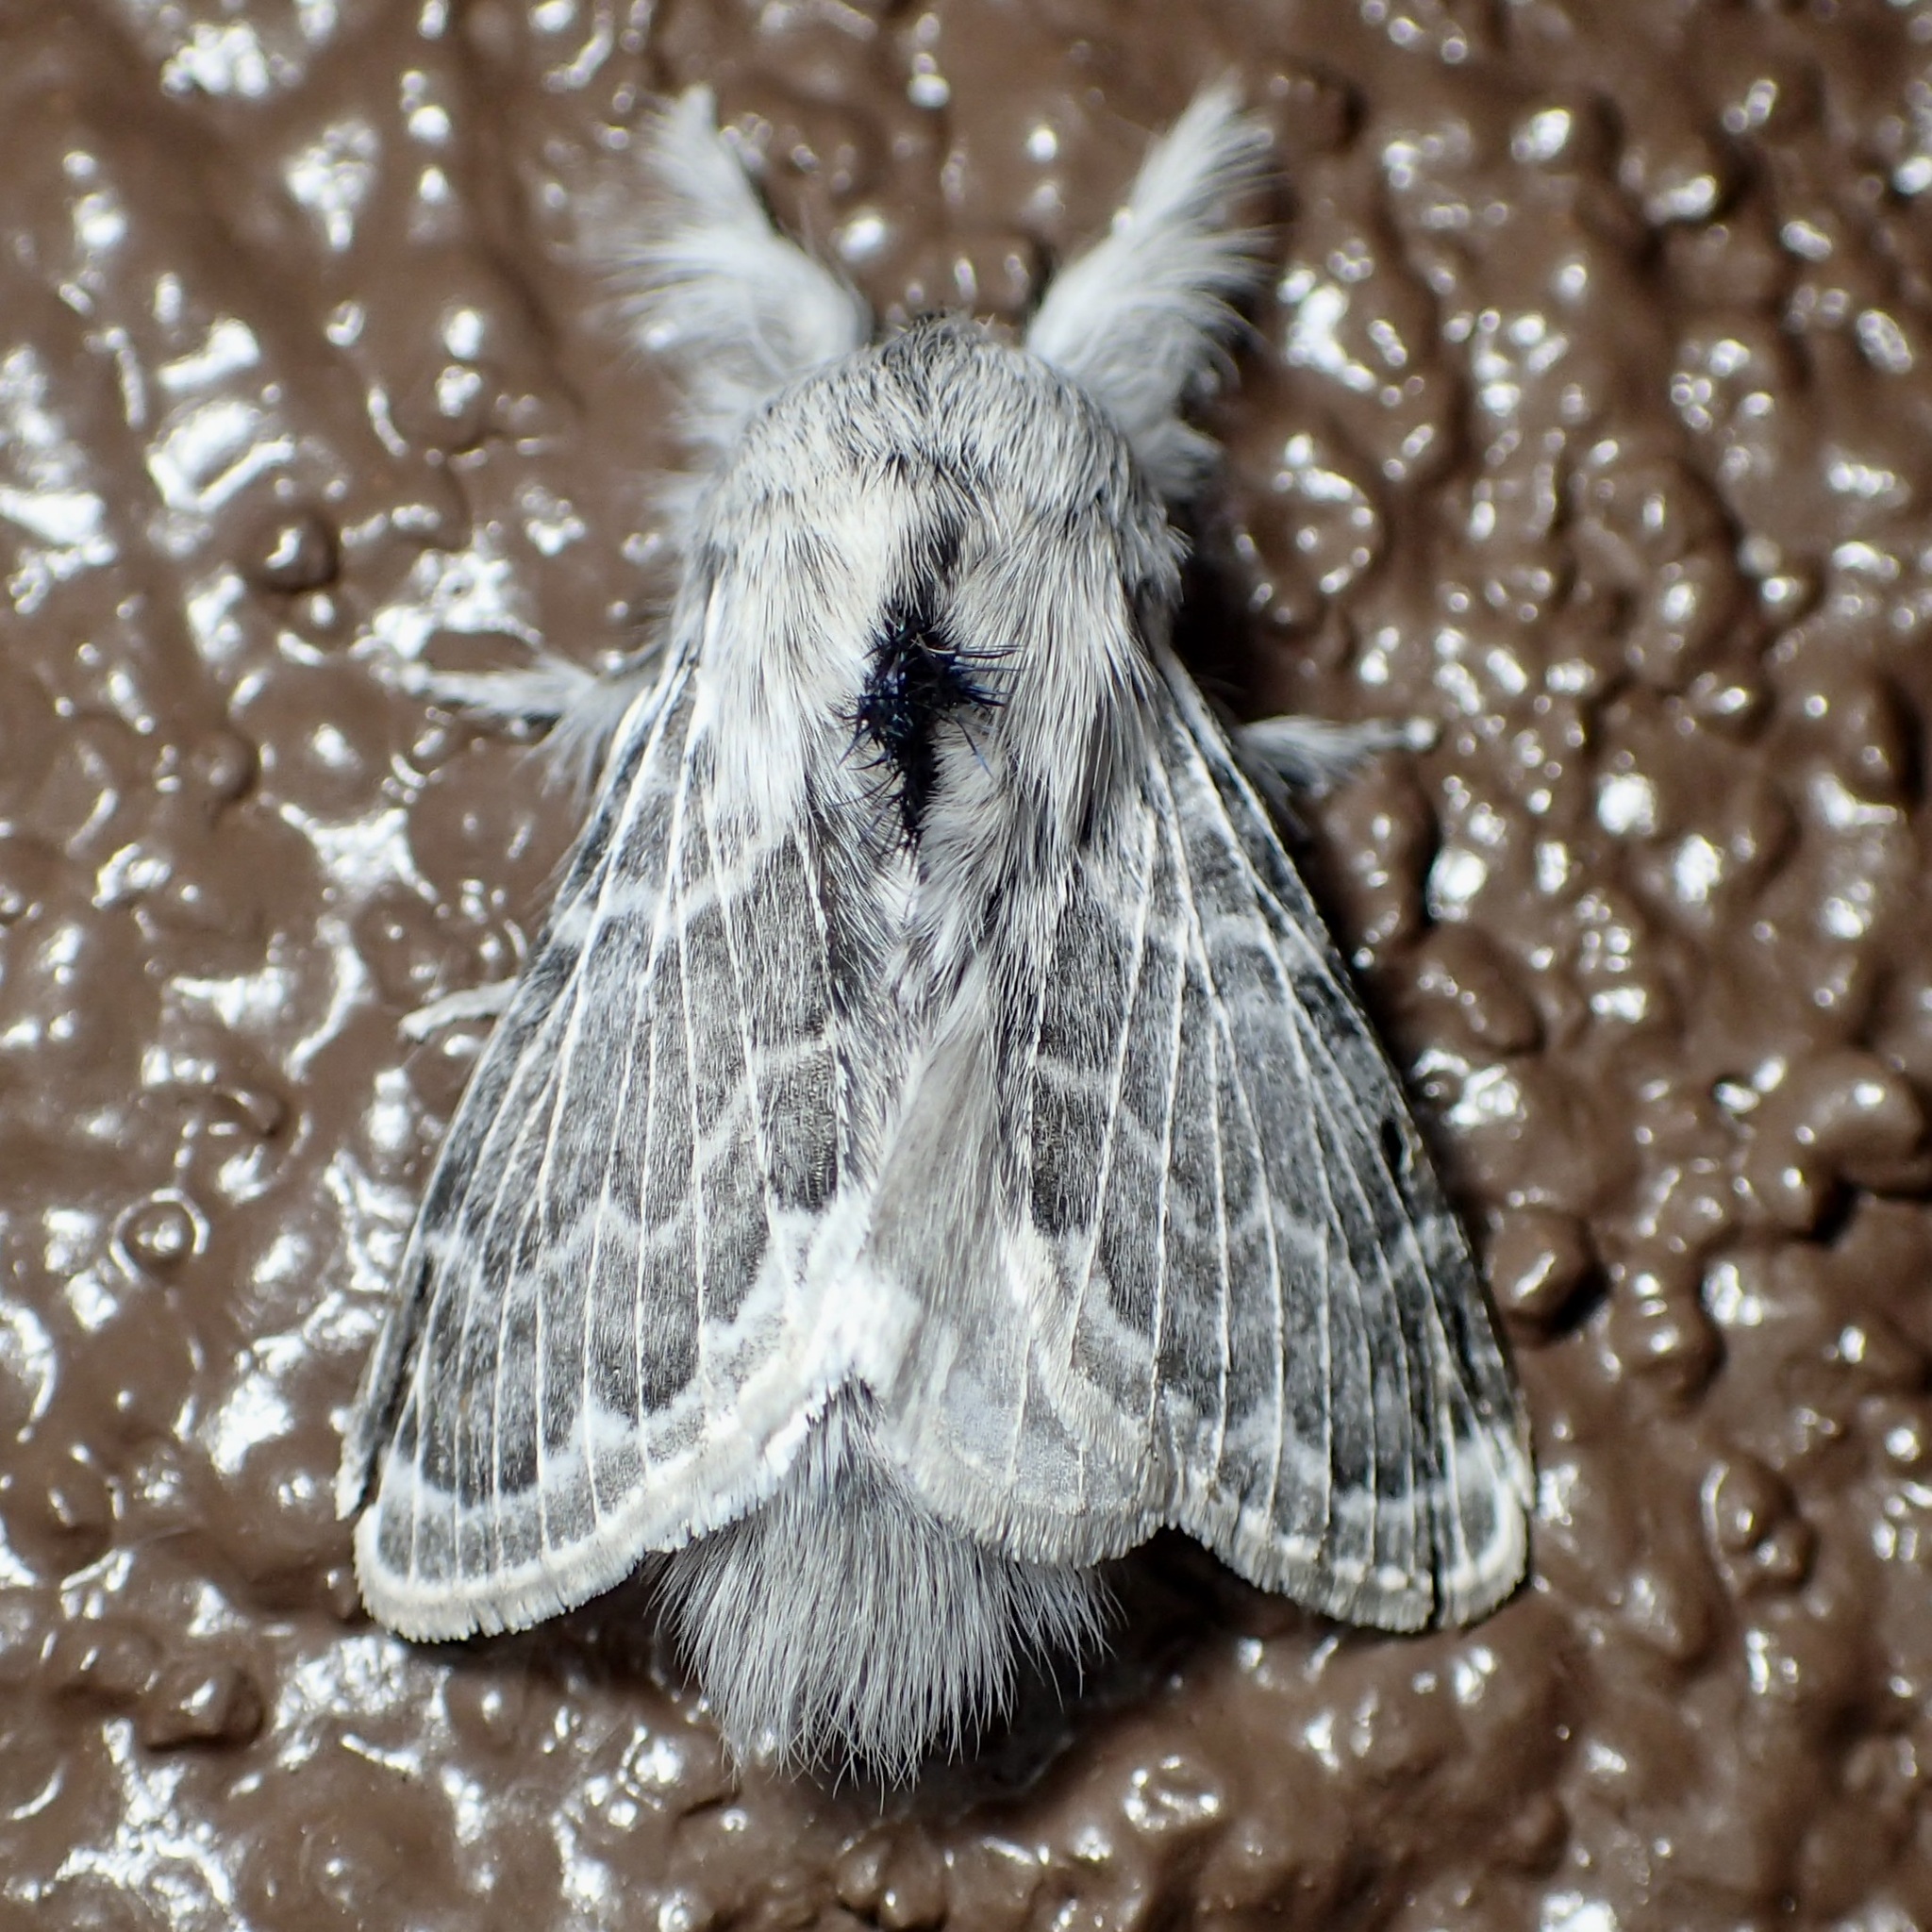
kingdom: Animalia
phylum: Arthropoda
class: Insecta
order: Lepidoptera
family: Lasiocampidae
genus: Apotolype
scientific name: Apotolype brevicrista
